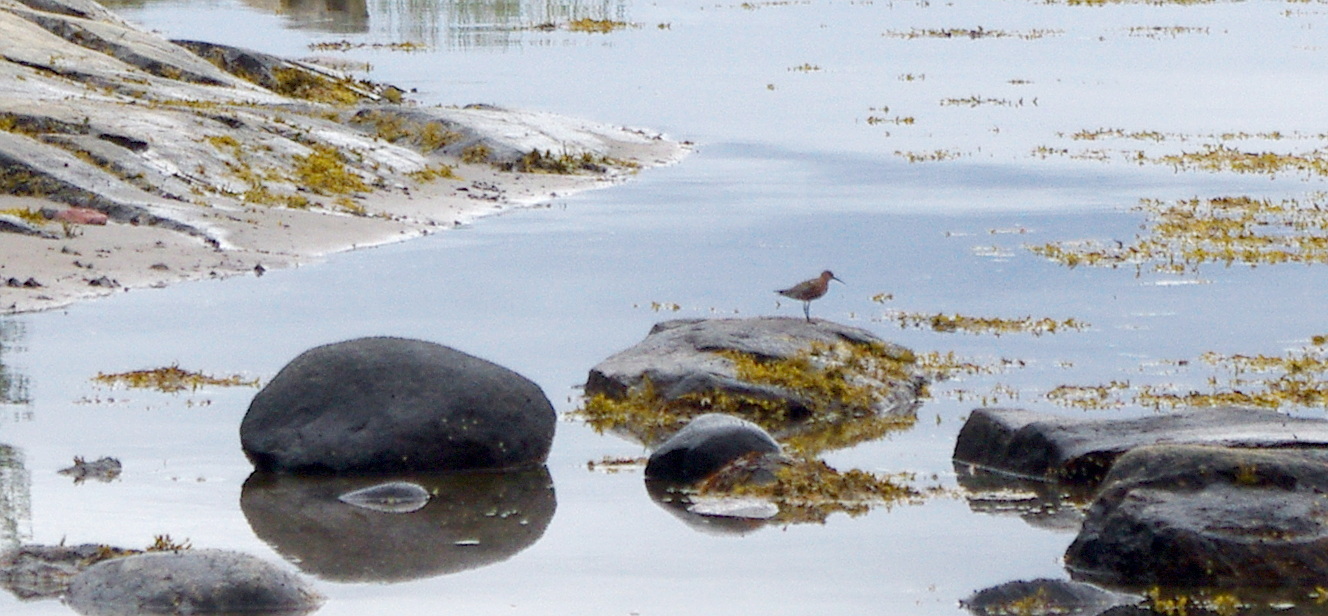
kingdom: Animalia
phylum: Chordata
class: Aves
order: Charadriiformes
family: Scolopacidae
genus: Calidris
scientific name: Calidris ferruginea
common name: Curlew sandpiper
